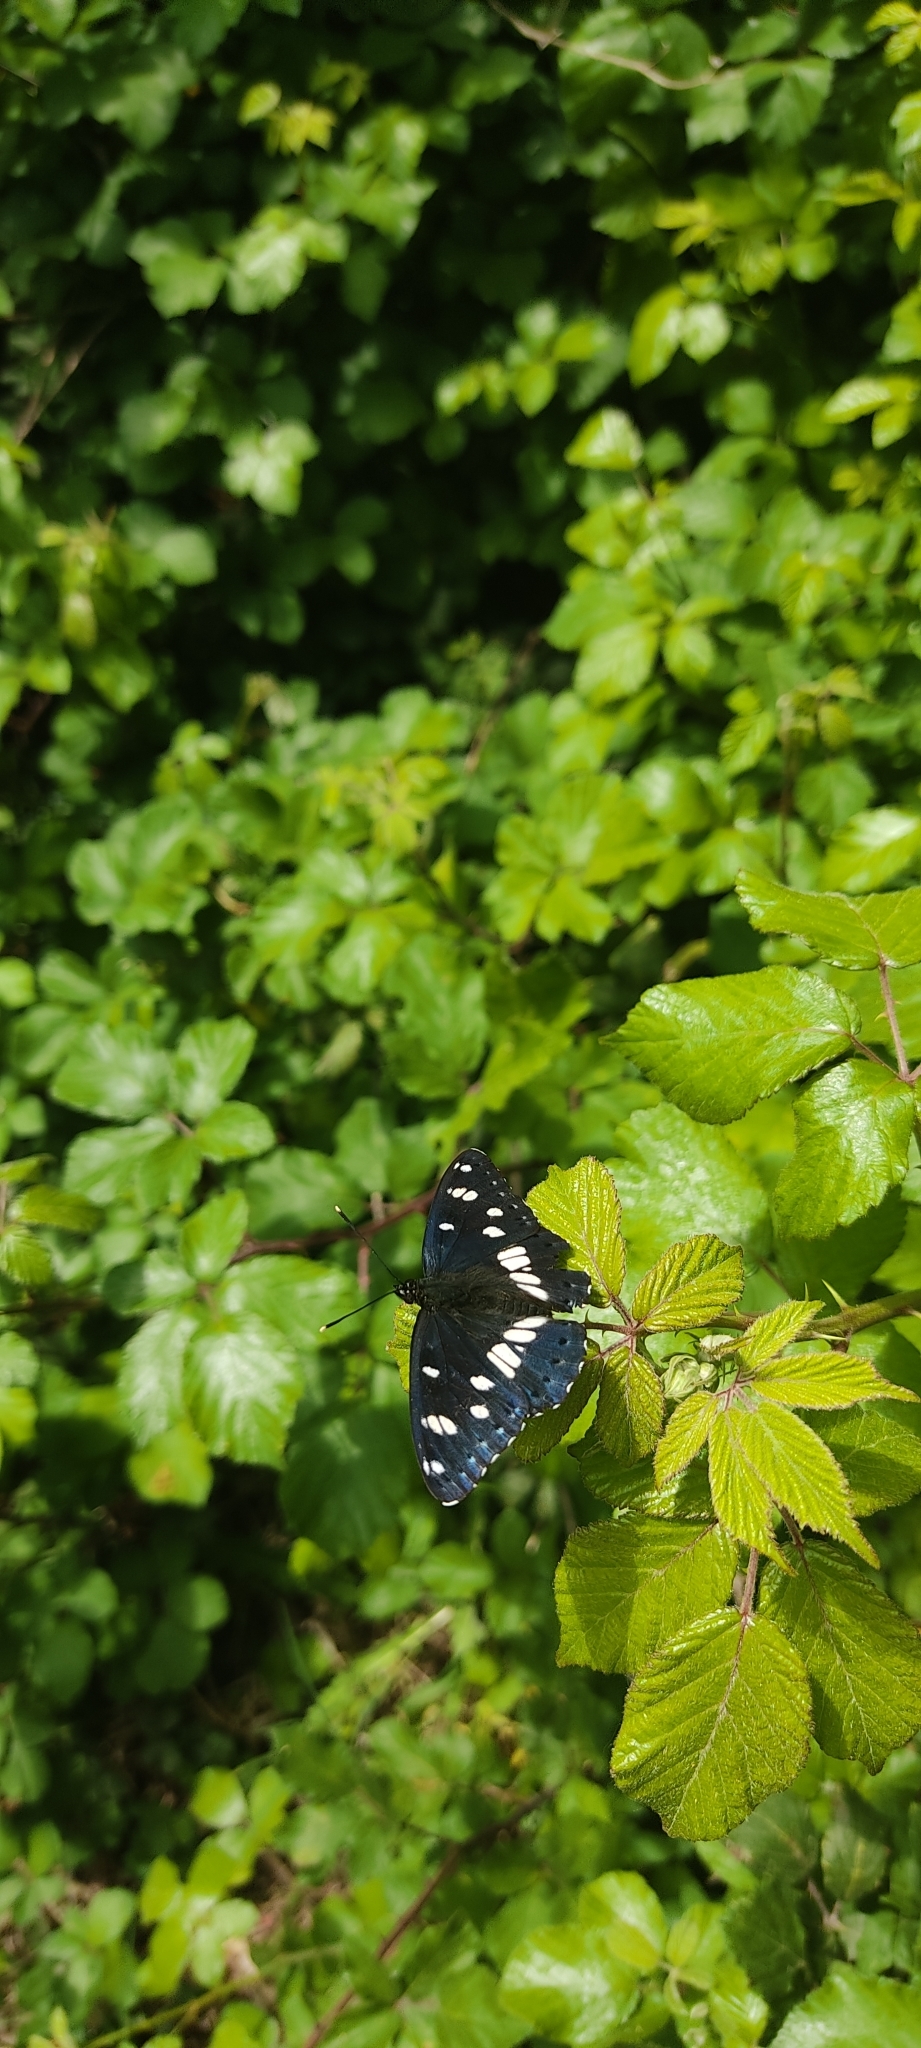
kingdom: Animalia
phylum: Arthropoda
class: Insecta
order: Lepidoptera
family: Nymphalidae
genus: Limenitis
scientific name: Limenitis reducta
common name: Southern white admiral
